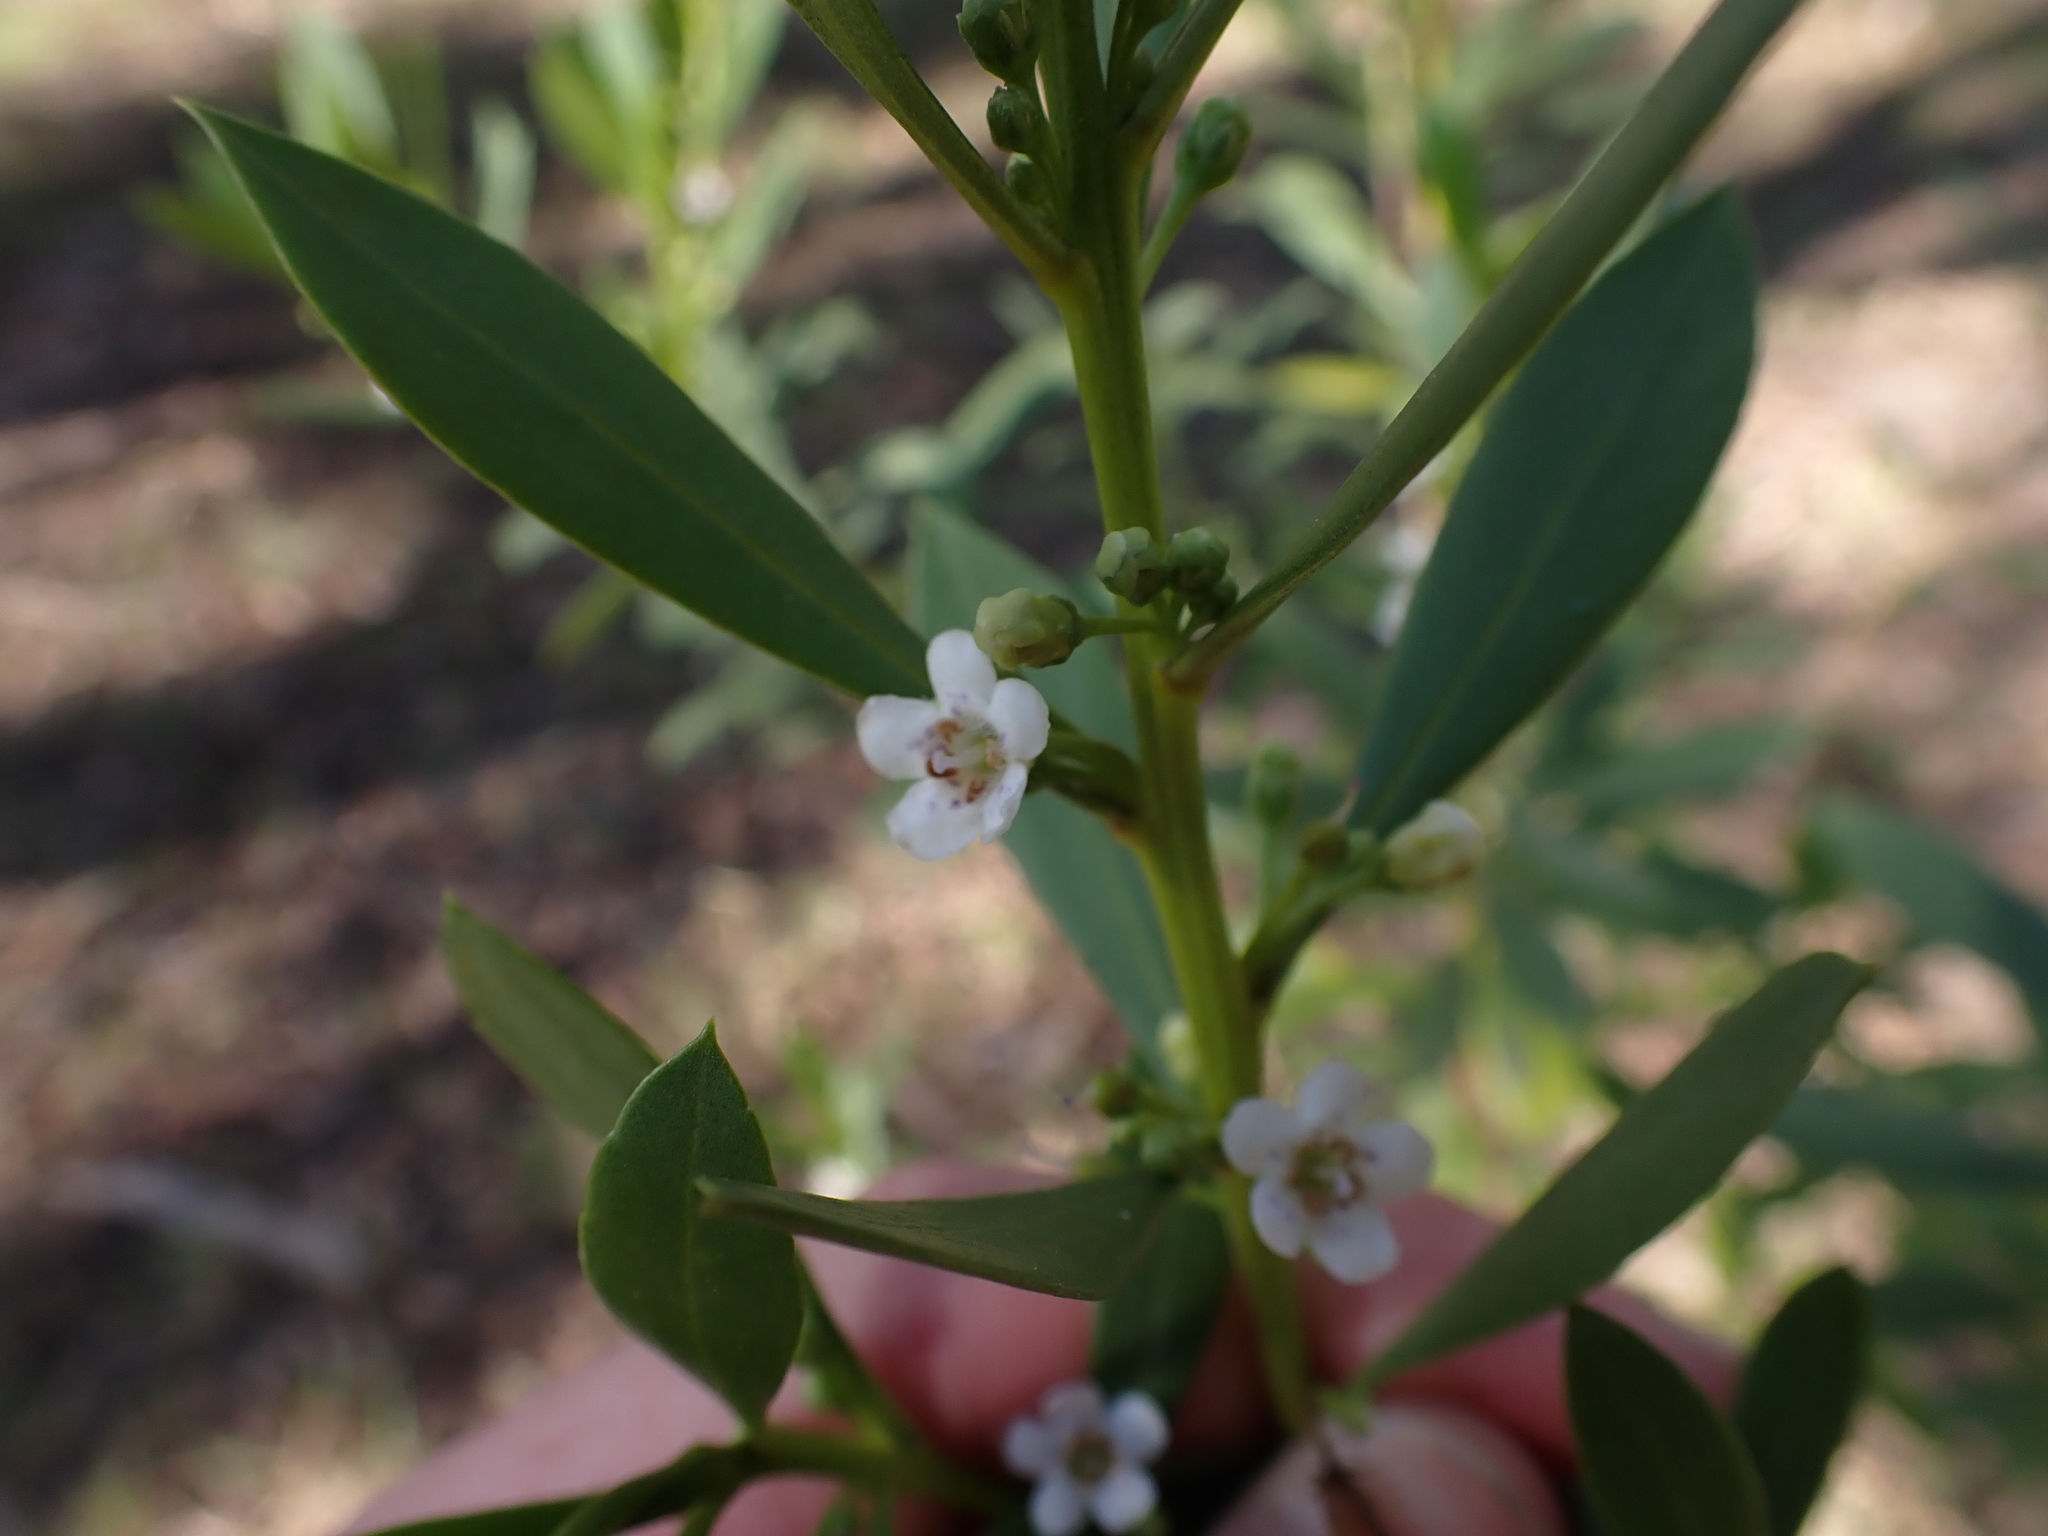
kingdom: Plantae
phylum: Tracheophyta
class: Magnoliopsida
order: Lamiales
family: Scrophulariaceae
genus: Myoporum
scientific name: Myoporum insulare
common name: Common boobialla
